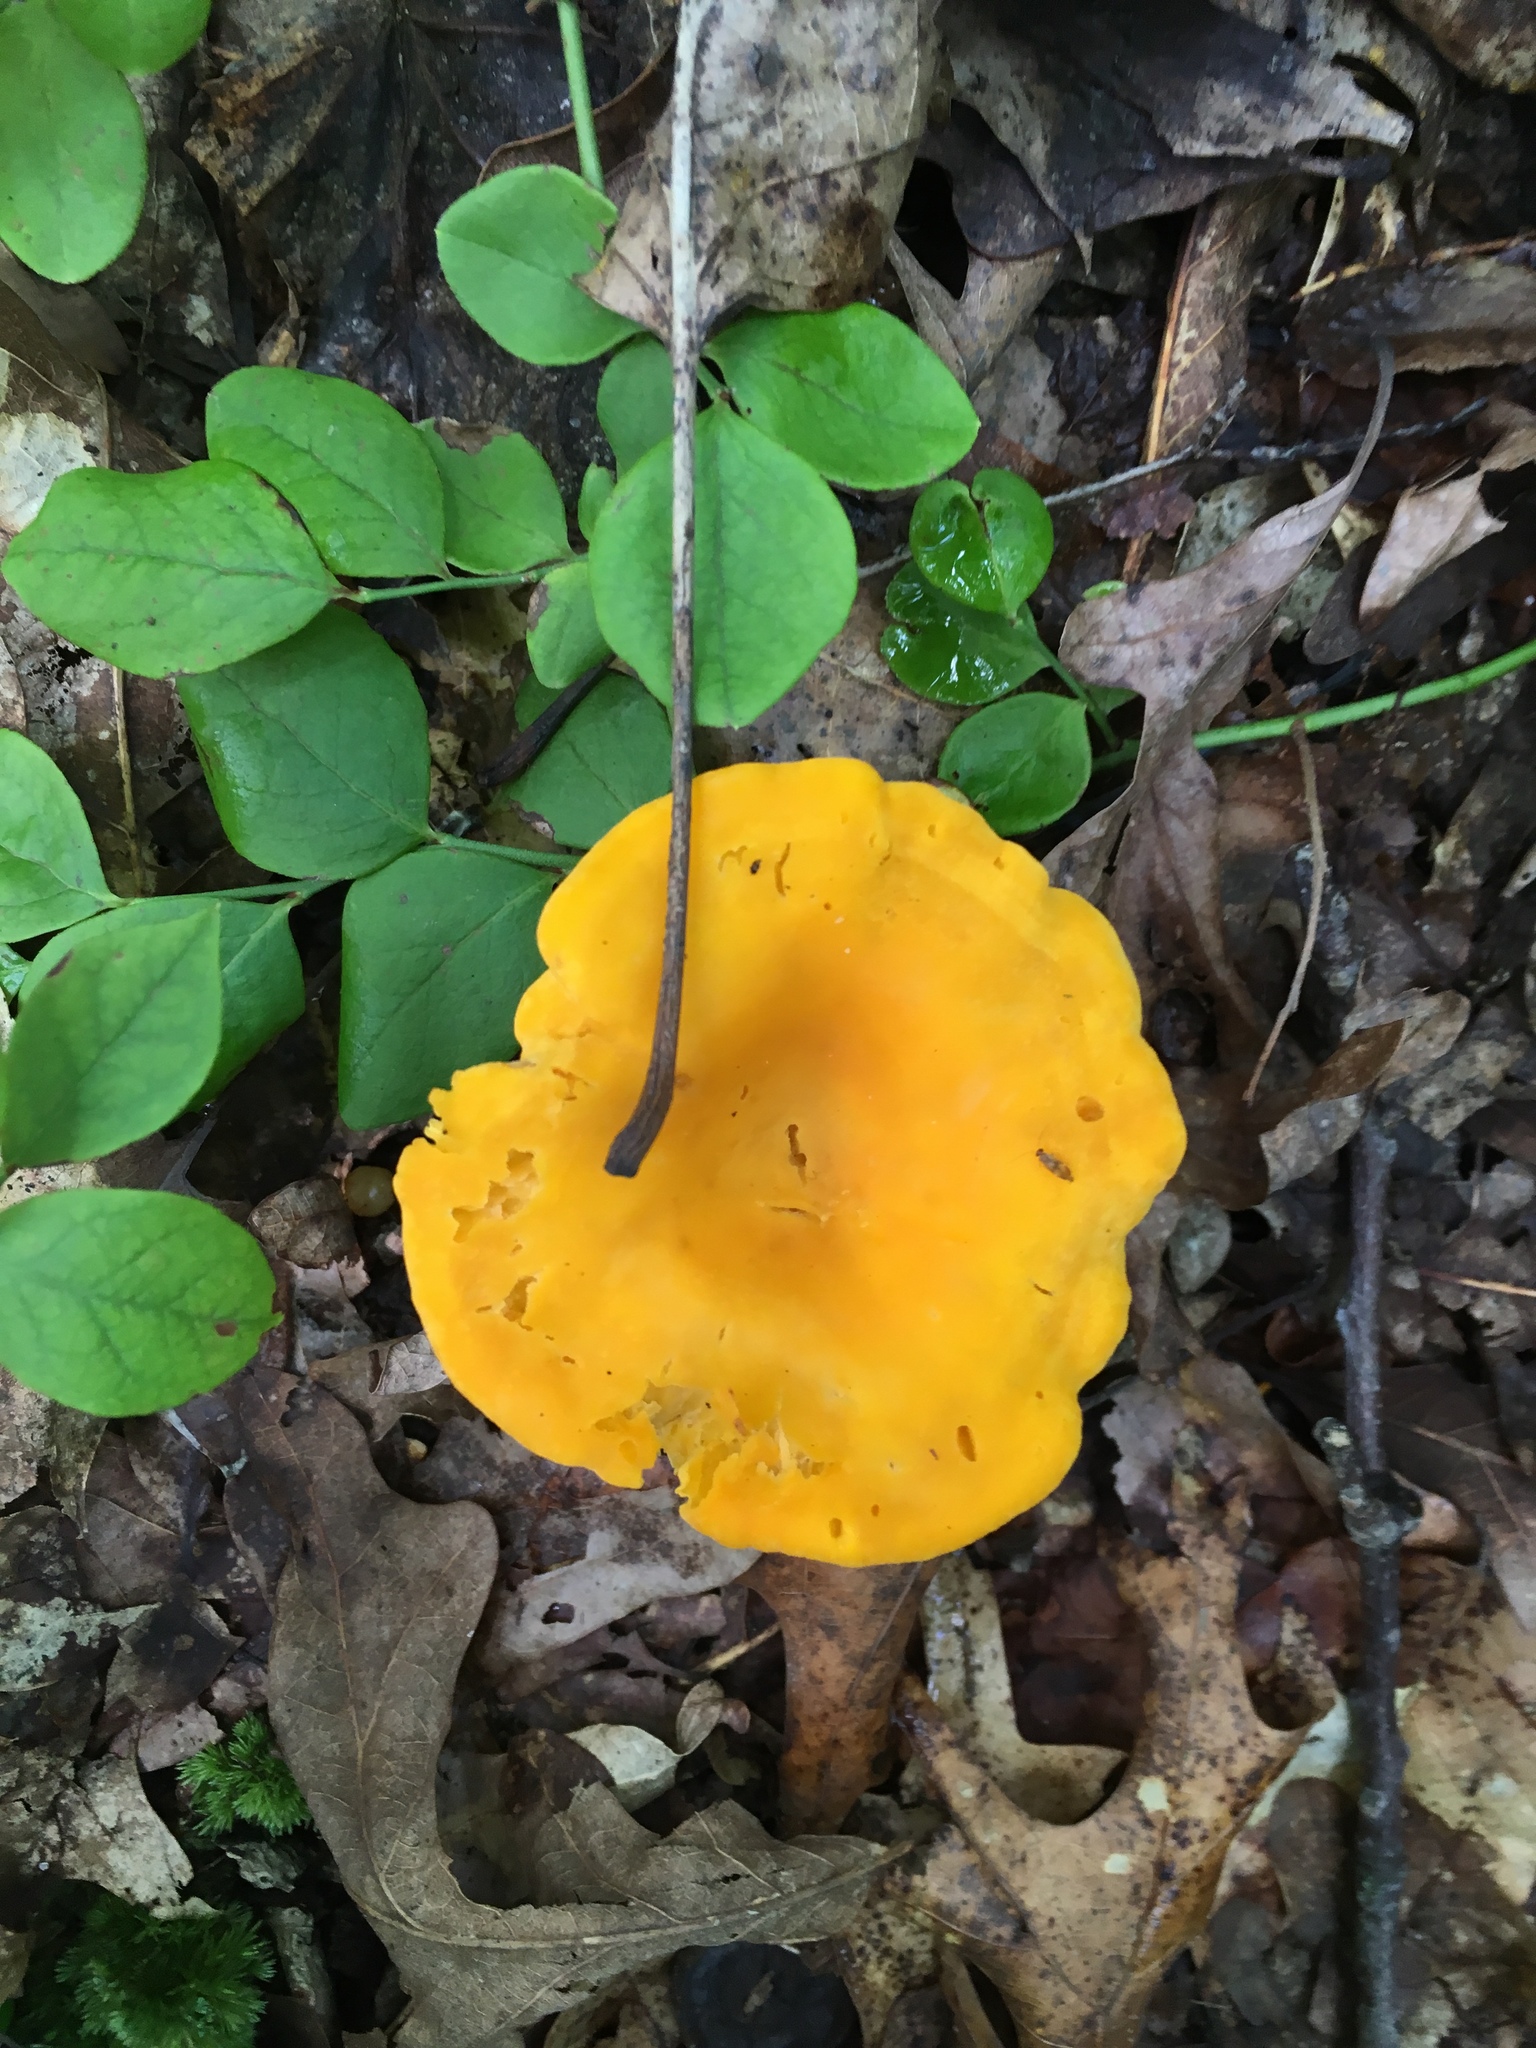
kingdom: Fungi
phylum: Basidiomycota
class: Agaricomycetes
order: Cantharellales
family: Hydnaceae
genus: Cantharellus
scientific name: Cantharellus lateritius
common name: Smooth chanterelle
